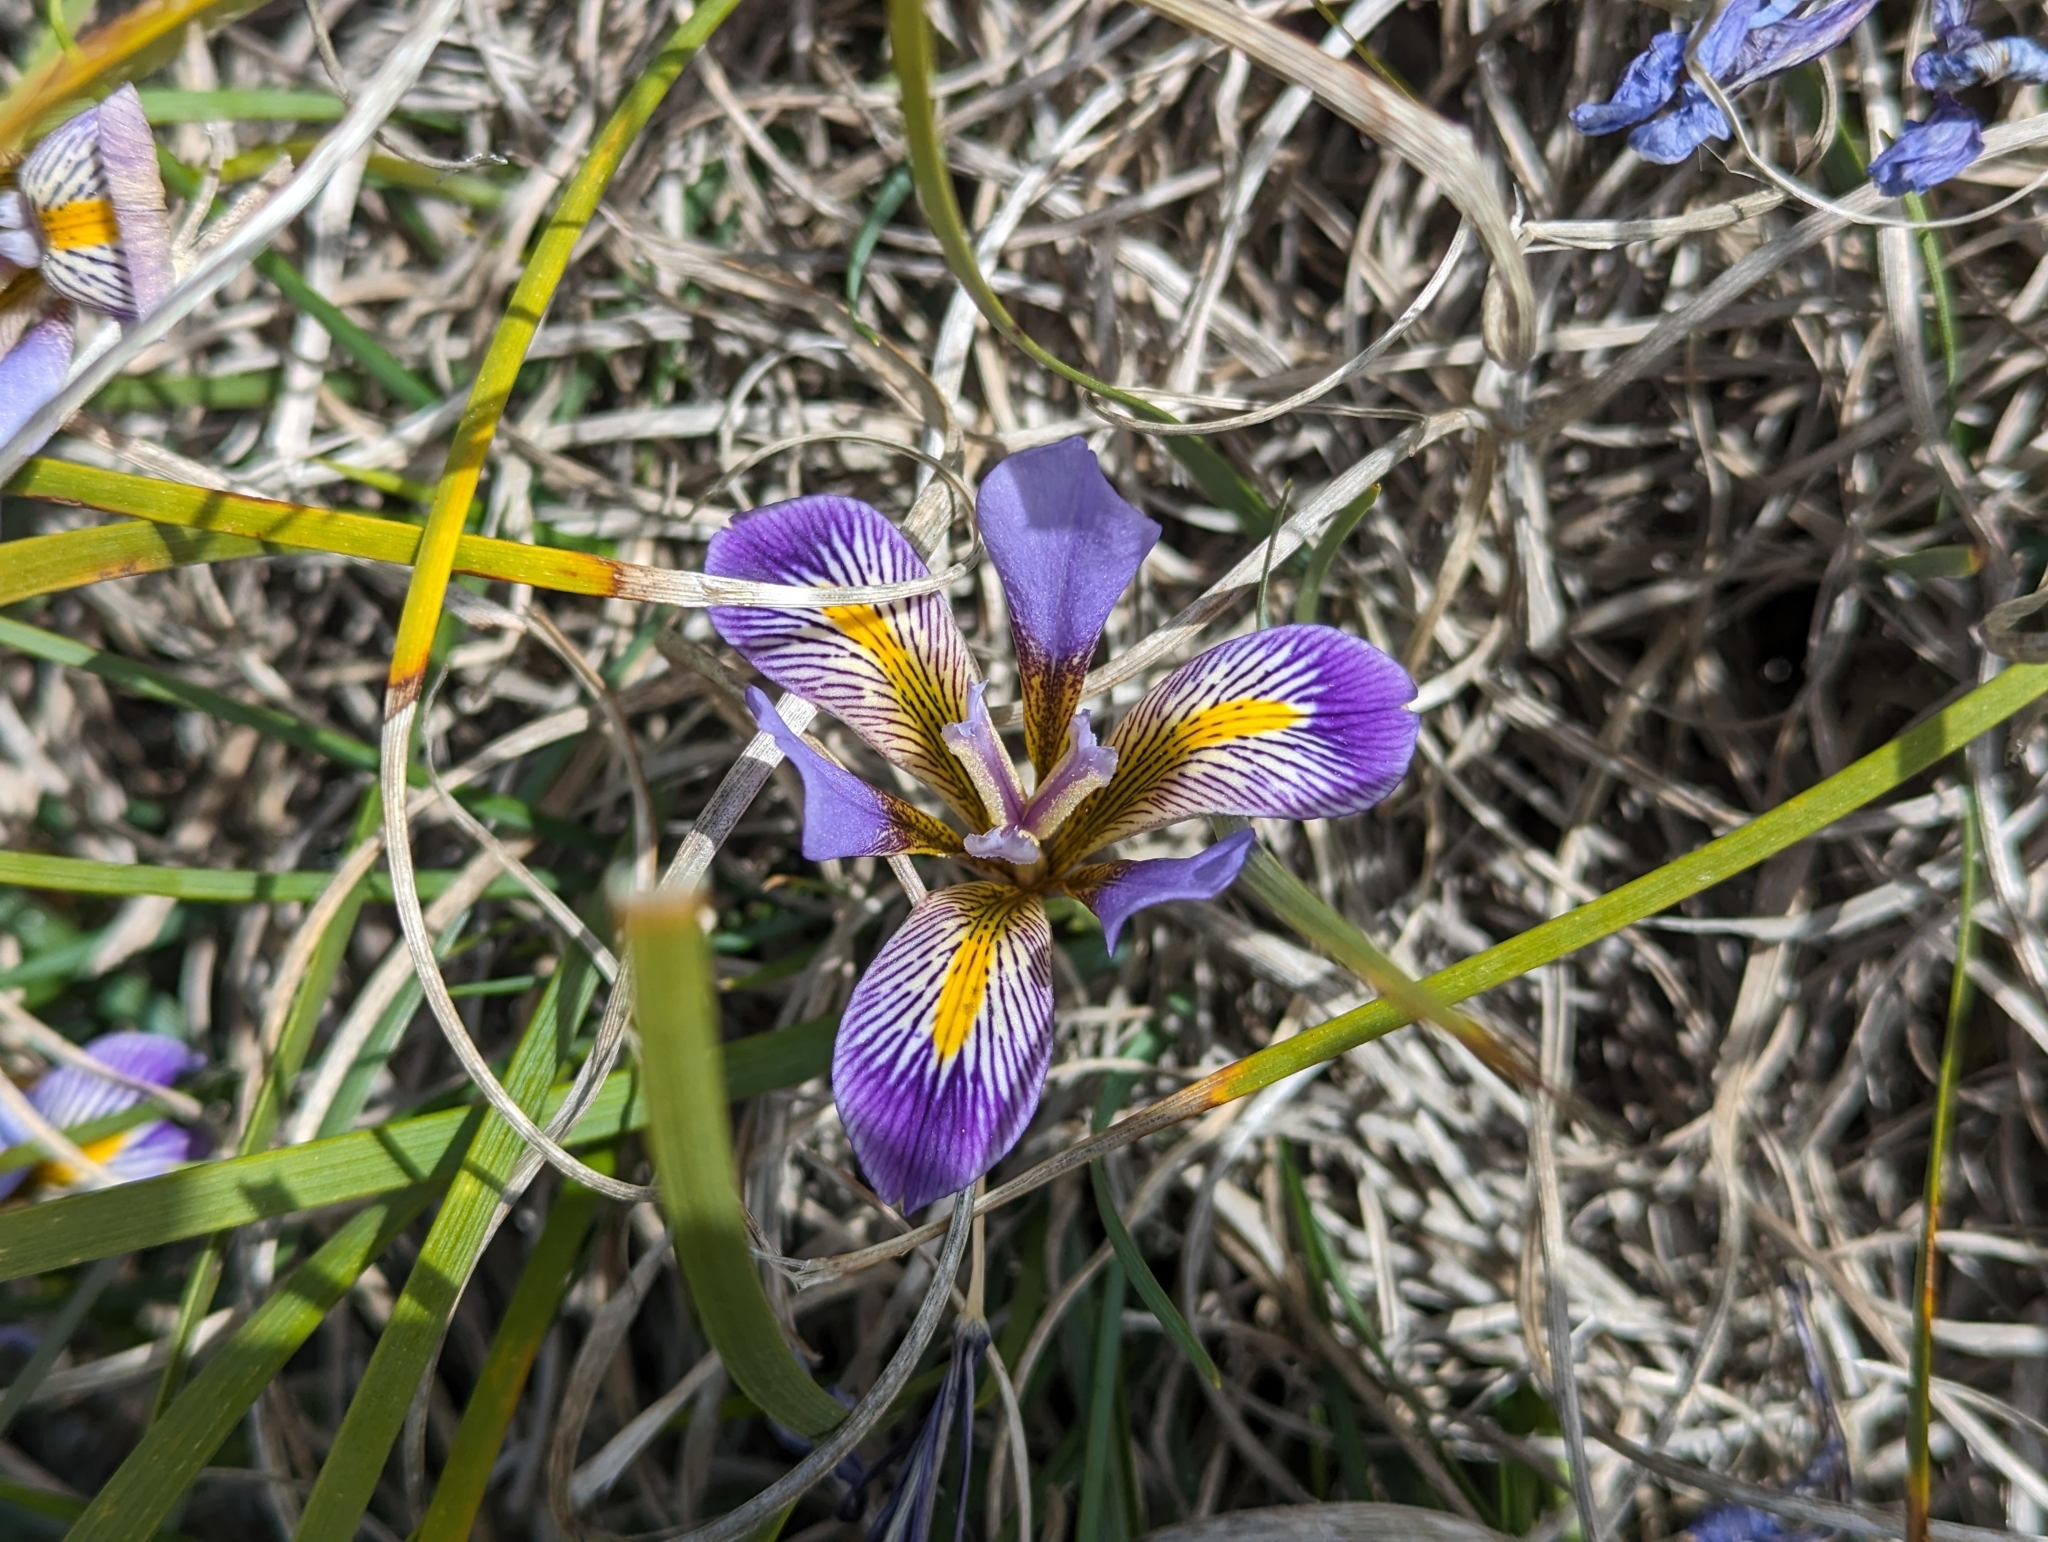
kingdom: Plantae
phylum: Tracheophyta
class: Liliopsida
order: Asparagales
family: Iridaceae
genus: Iris
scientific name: Iris unguicularis
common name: Algerian iris
